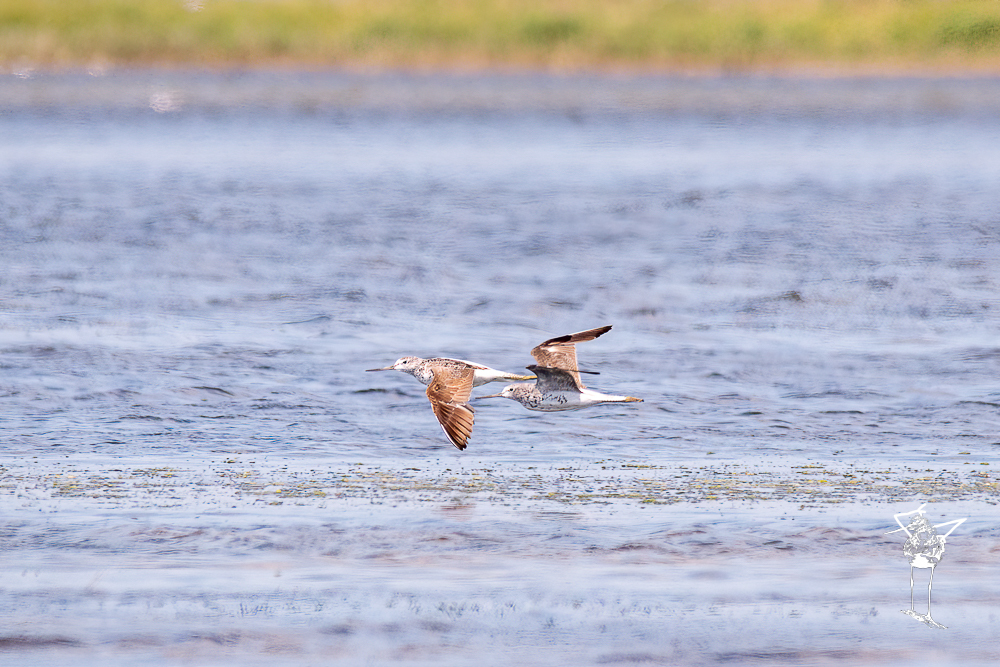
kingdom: Animalia
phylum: Chordata
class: Aves
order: Charadriiformes
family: Scolopacidae
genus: Tringa
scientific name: Tringa nebularia
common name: Common greenshank
